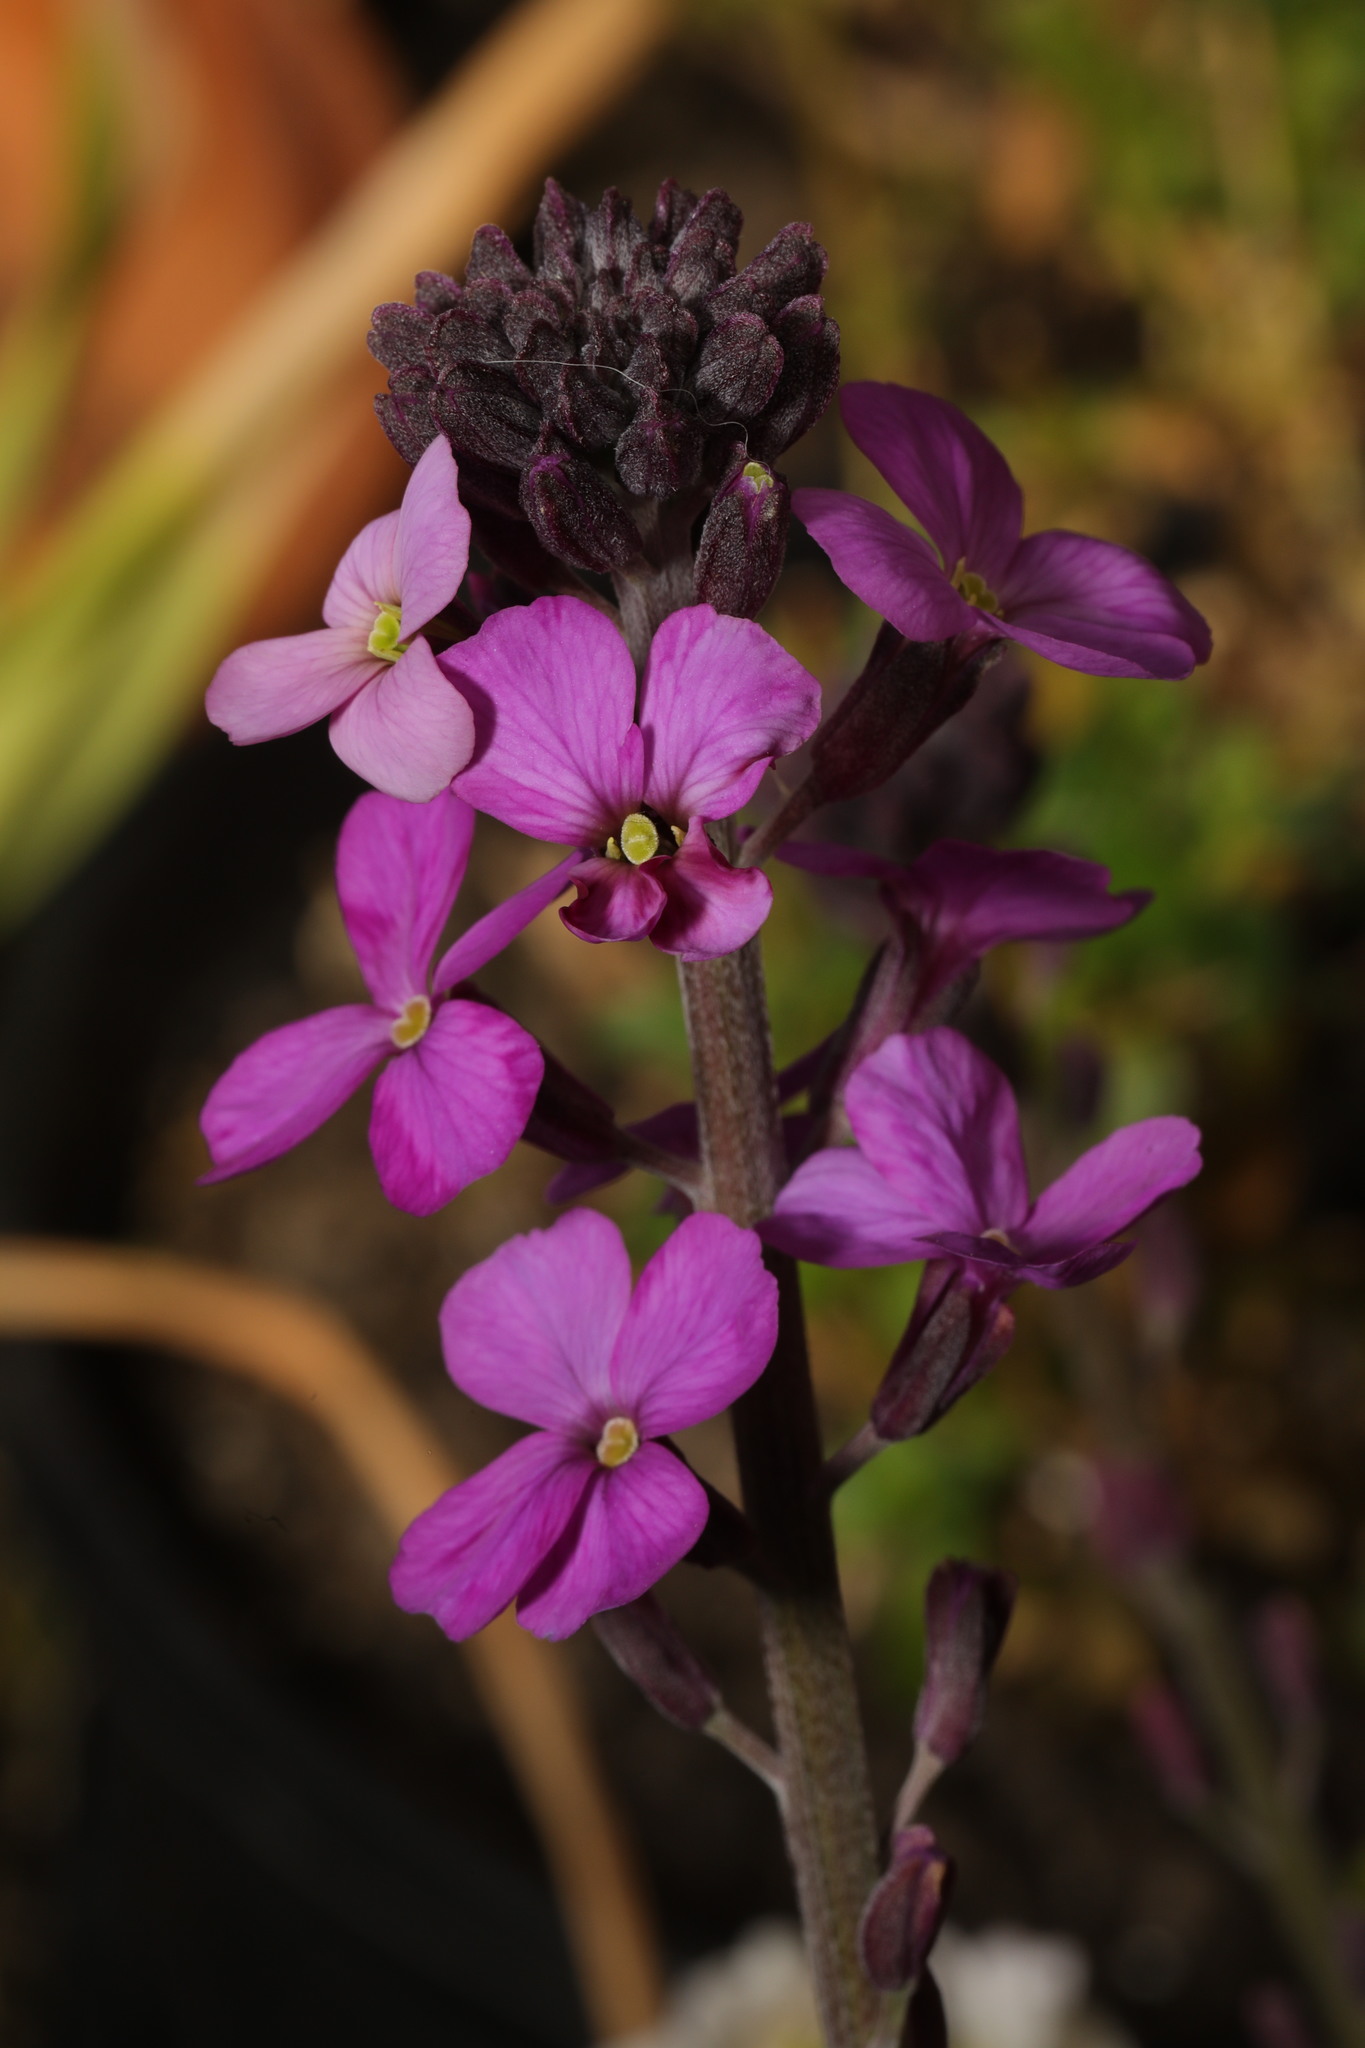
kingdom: Plantae
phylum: Tracheophyta
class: Magnoliopsida
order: Brassicales
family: Brassicaceae
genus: Erysimum
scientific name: Erysimum linifolium
